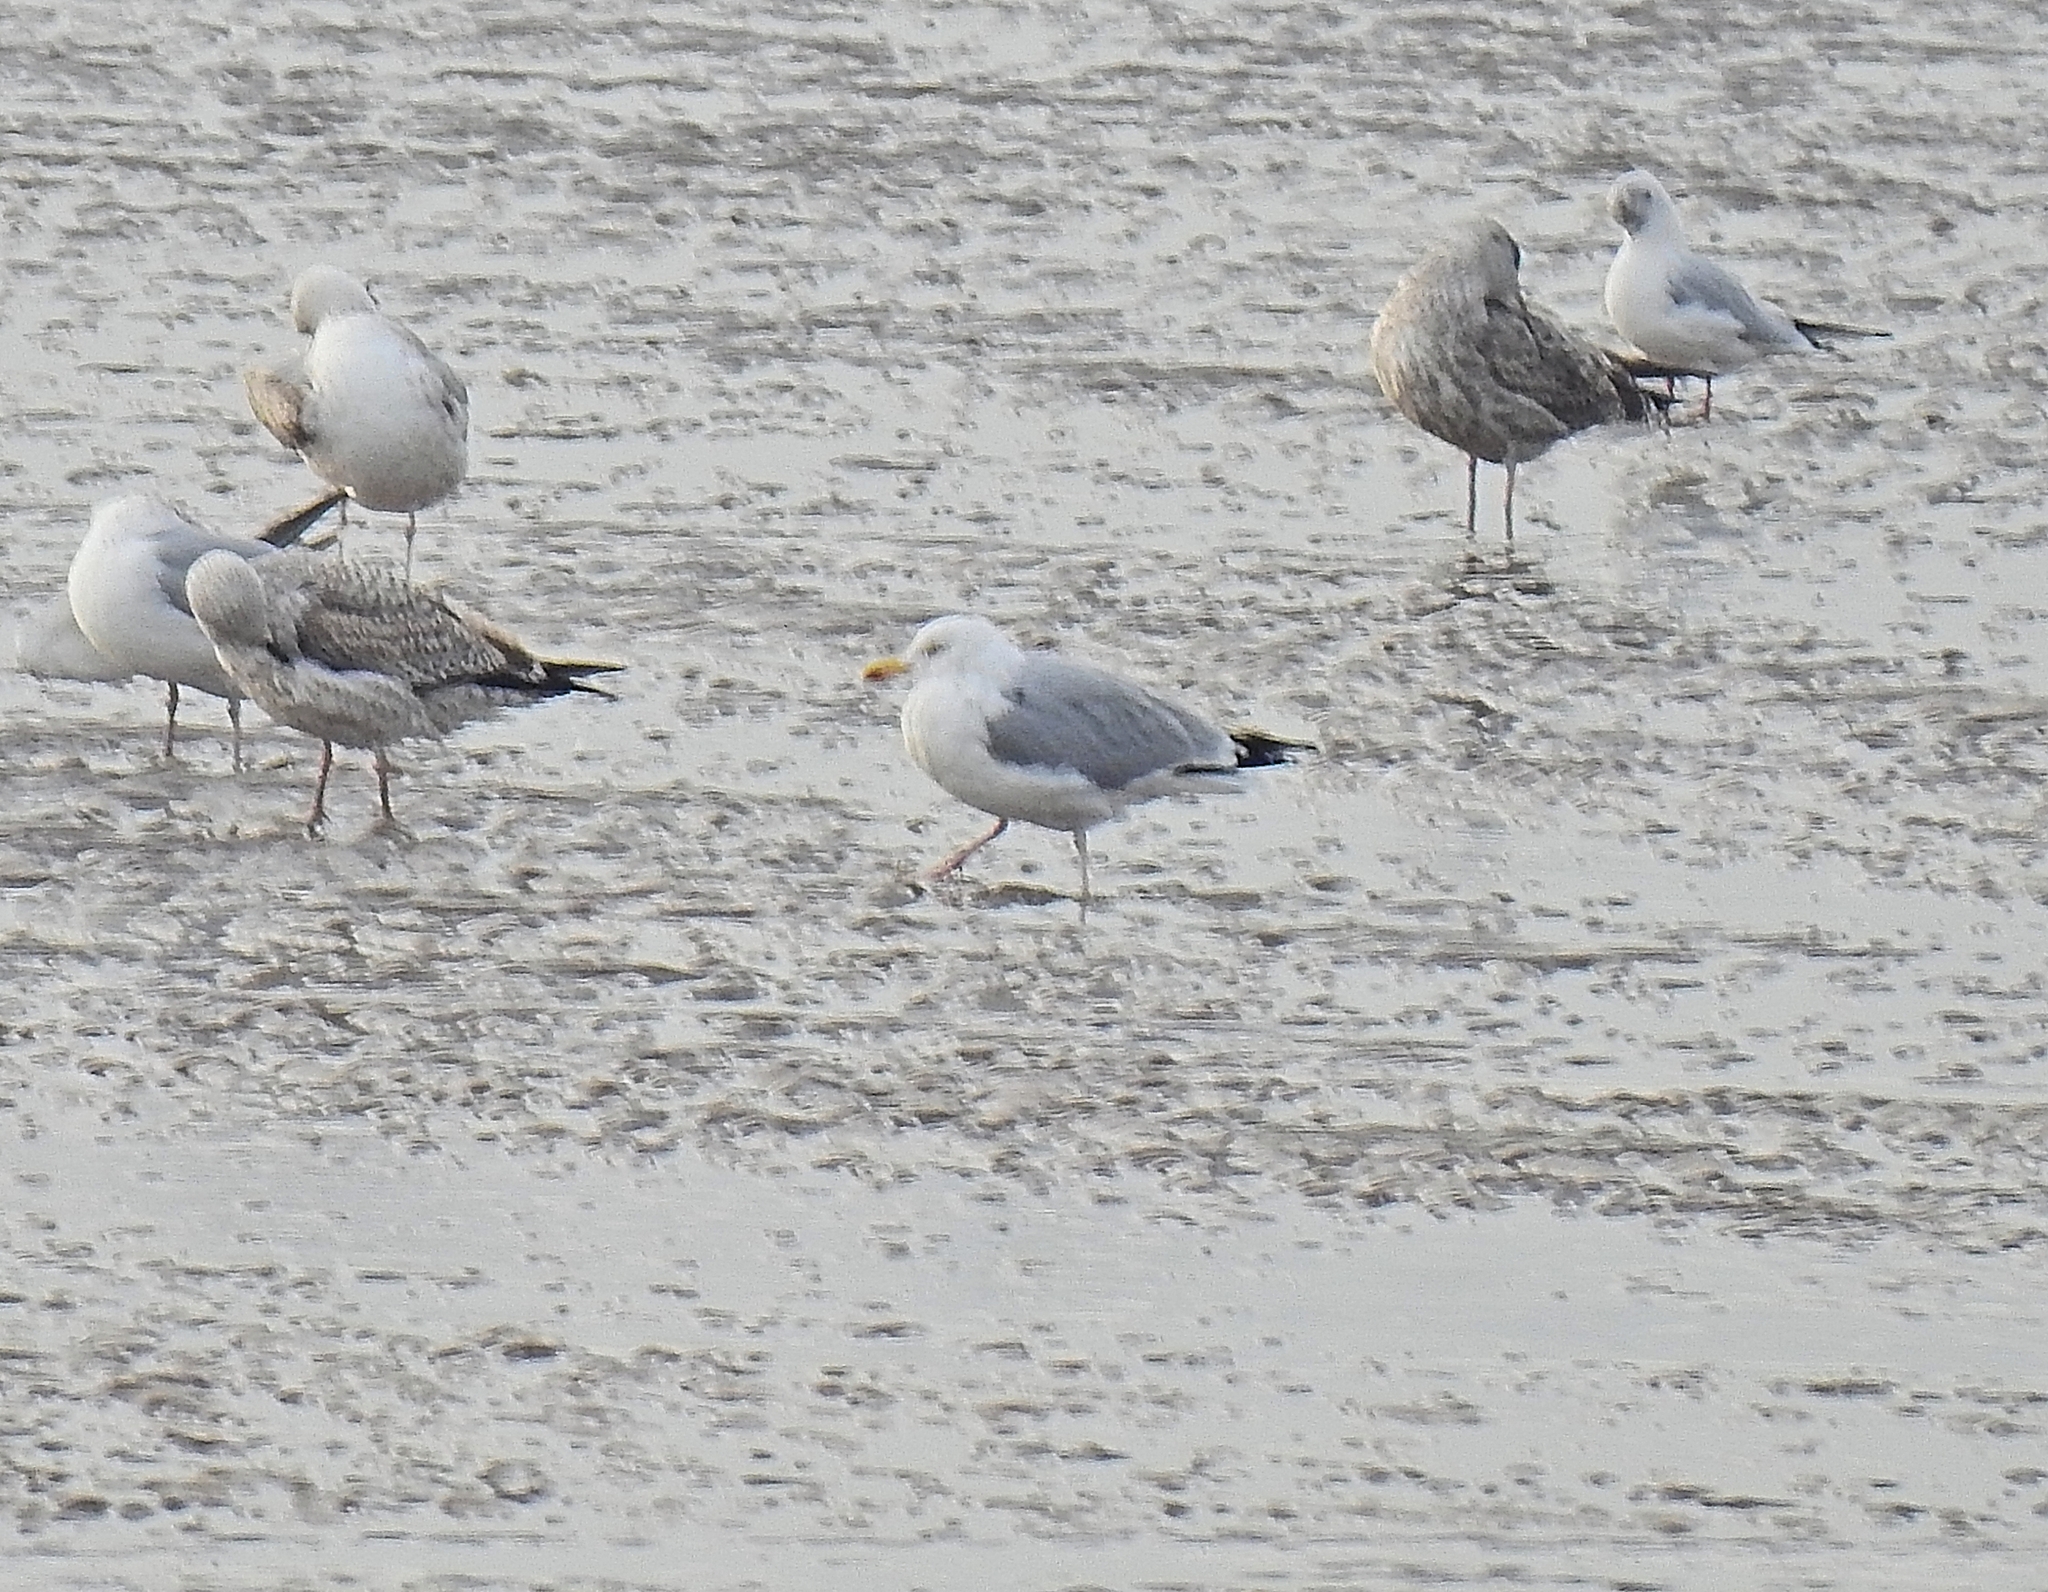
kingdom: Animalia
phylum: Chordata
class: Aves
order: Charadriiformes
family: Laridae
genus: Larus
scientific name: Larus argentatus
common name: Herring gull
